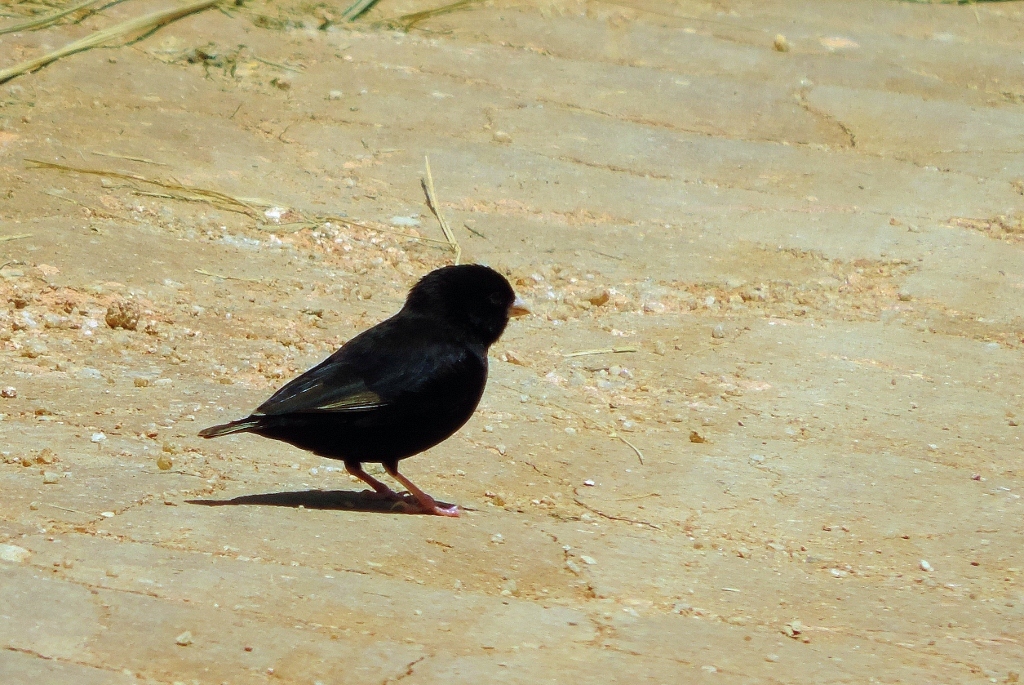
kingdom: Animalia
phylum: Chordata
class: Aves
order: Passeriformes
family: Viduidae
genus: Vidua
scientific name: Vidua funerea
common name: Dusky indigobird
